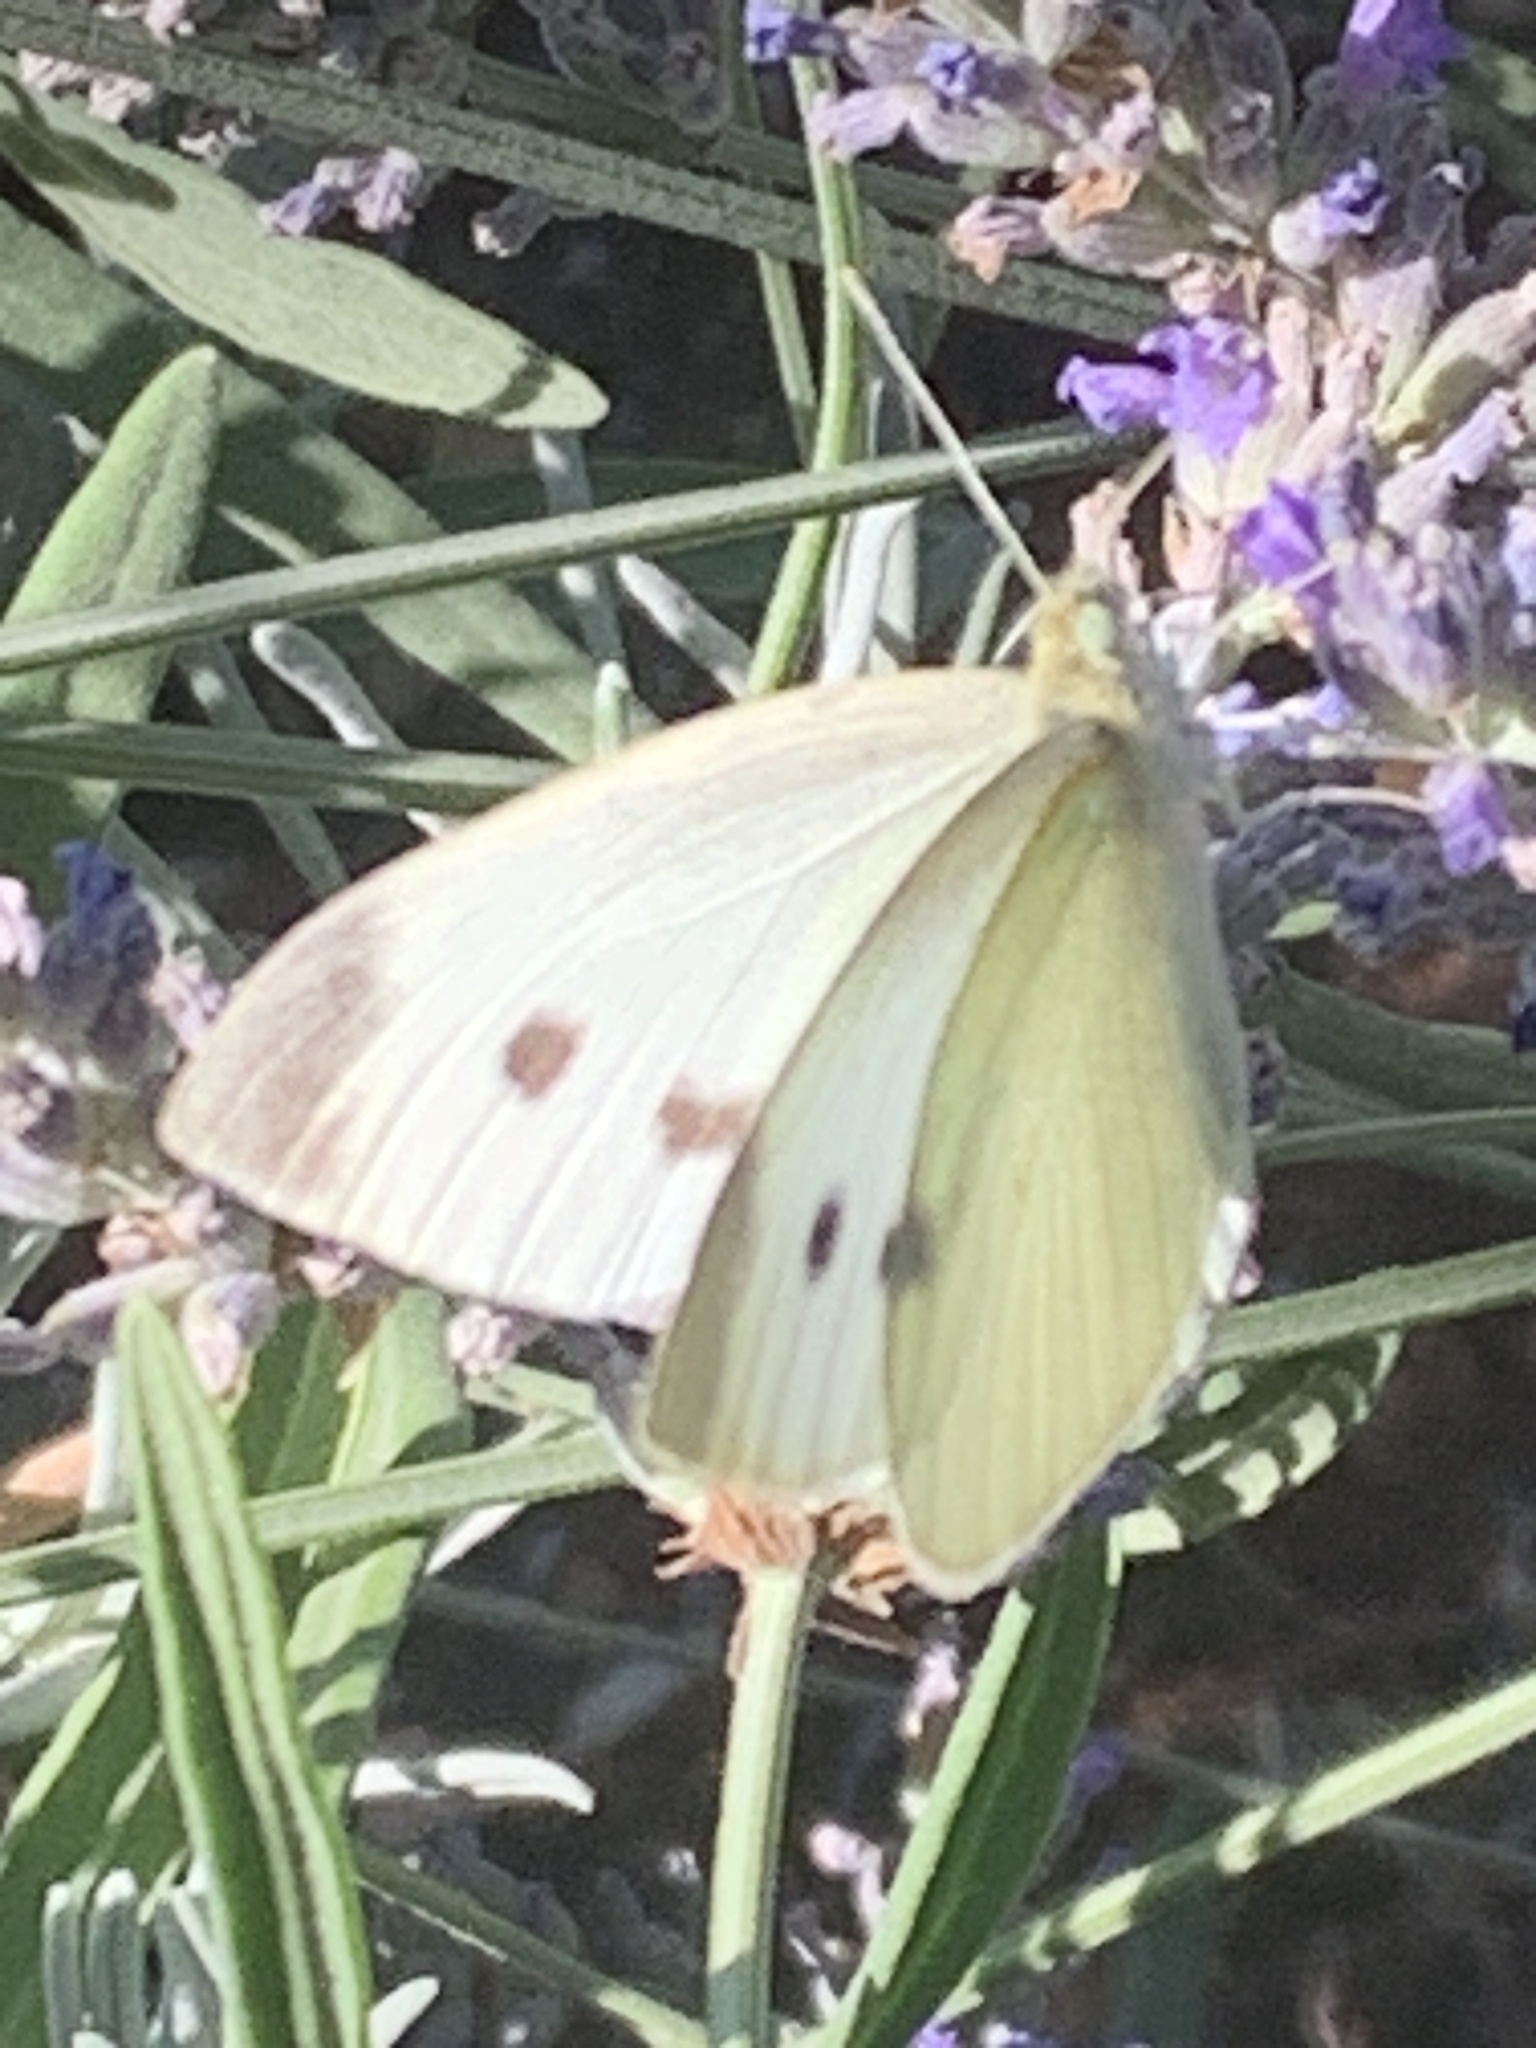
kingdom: Animalia
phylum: Arthropoda
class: Insecta
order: Lepidoptera
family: Pieridae
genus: Pieris
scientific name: Pieris rapae
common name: Small white
